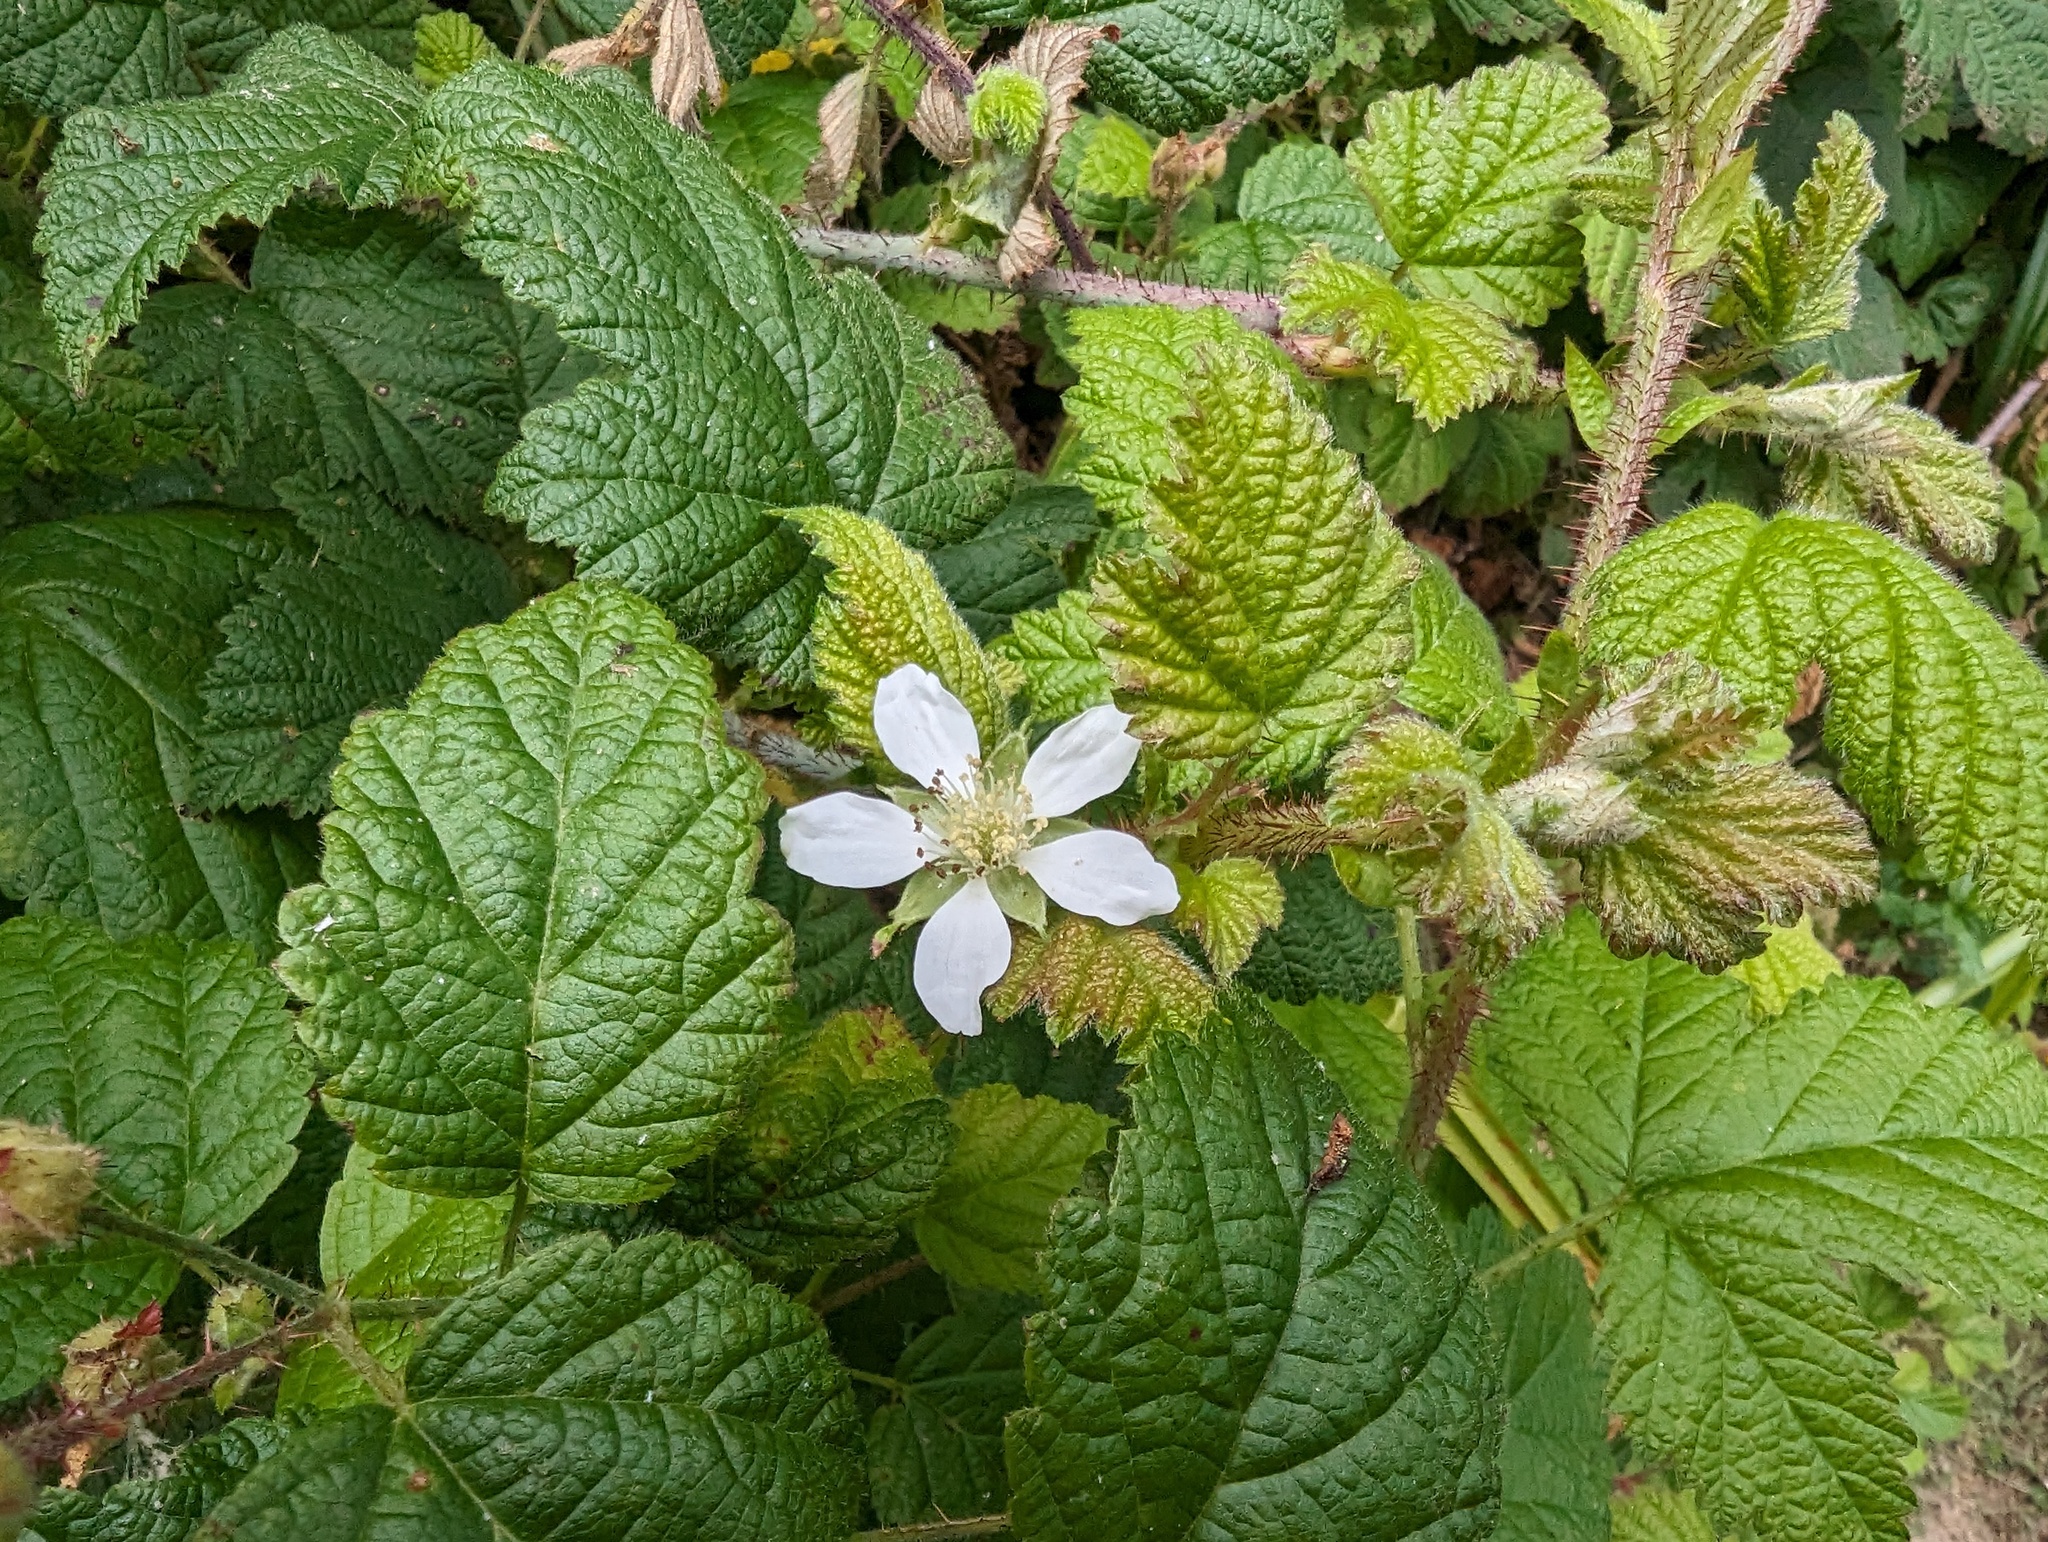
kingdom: Plantae
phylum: Tracheophyta
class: Magnoliopsida
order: Rosales
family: Rosaceae
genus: Rubus
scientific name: Rubus ursinus
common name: Pacific blackberry
